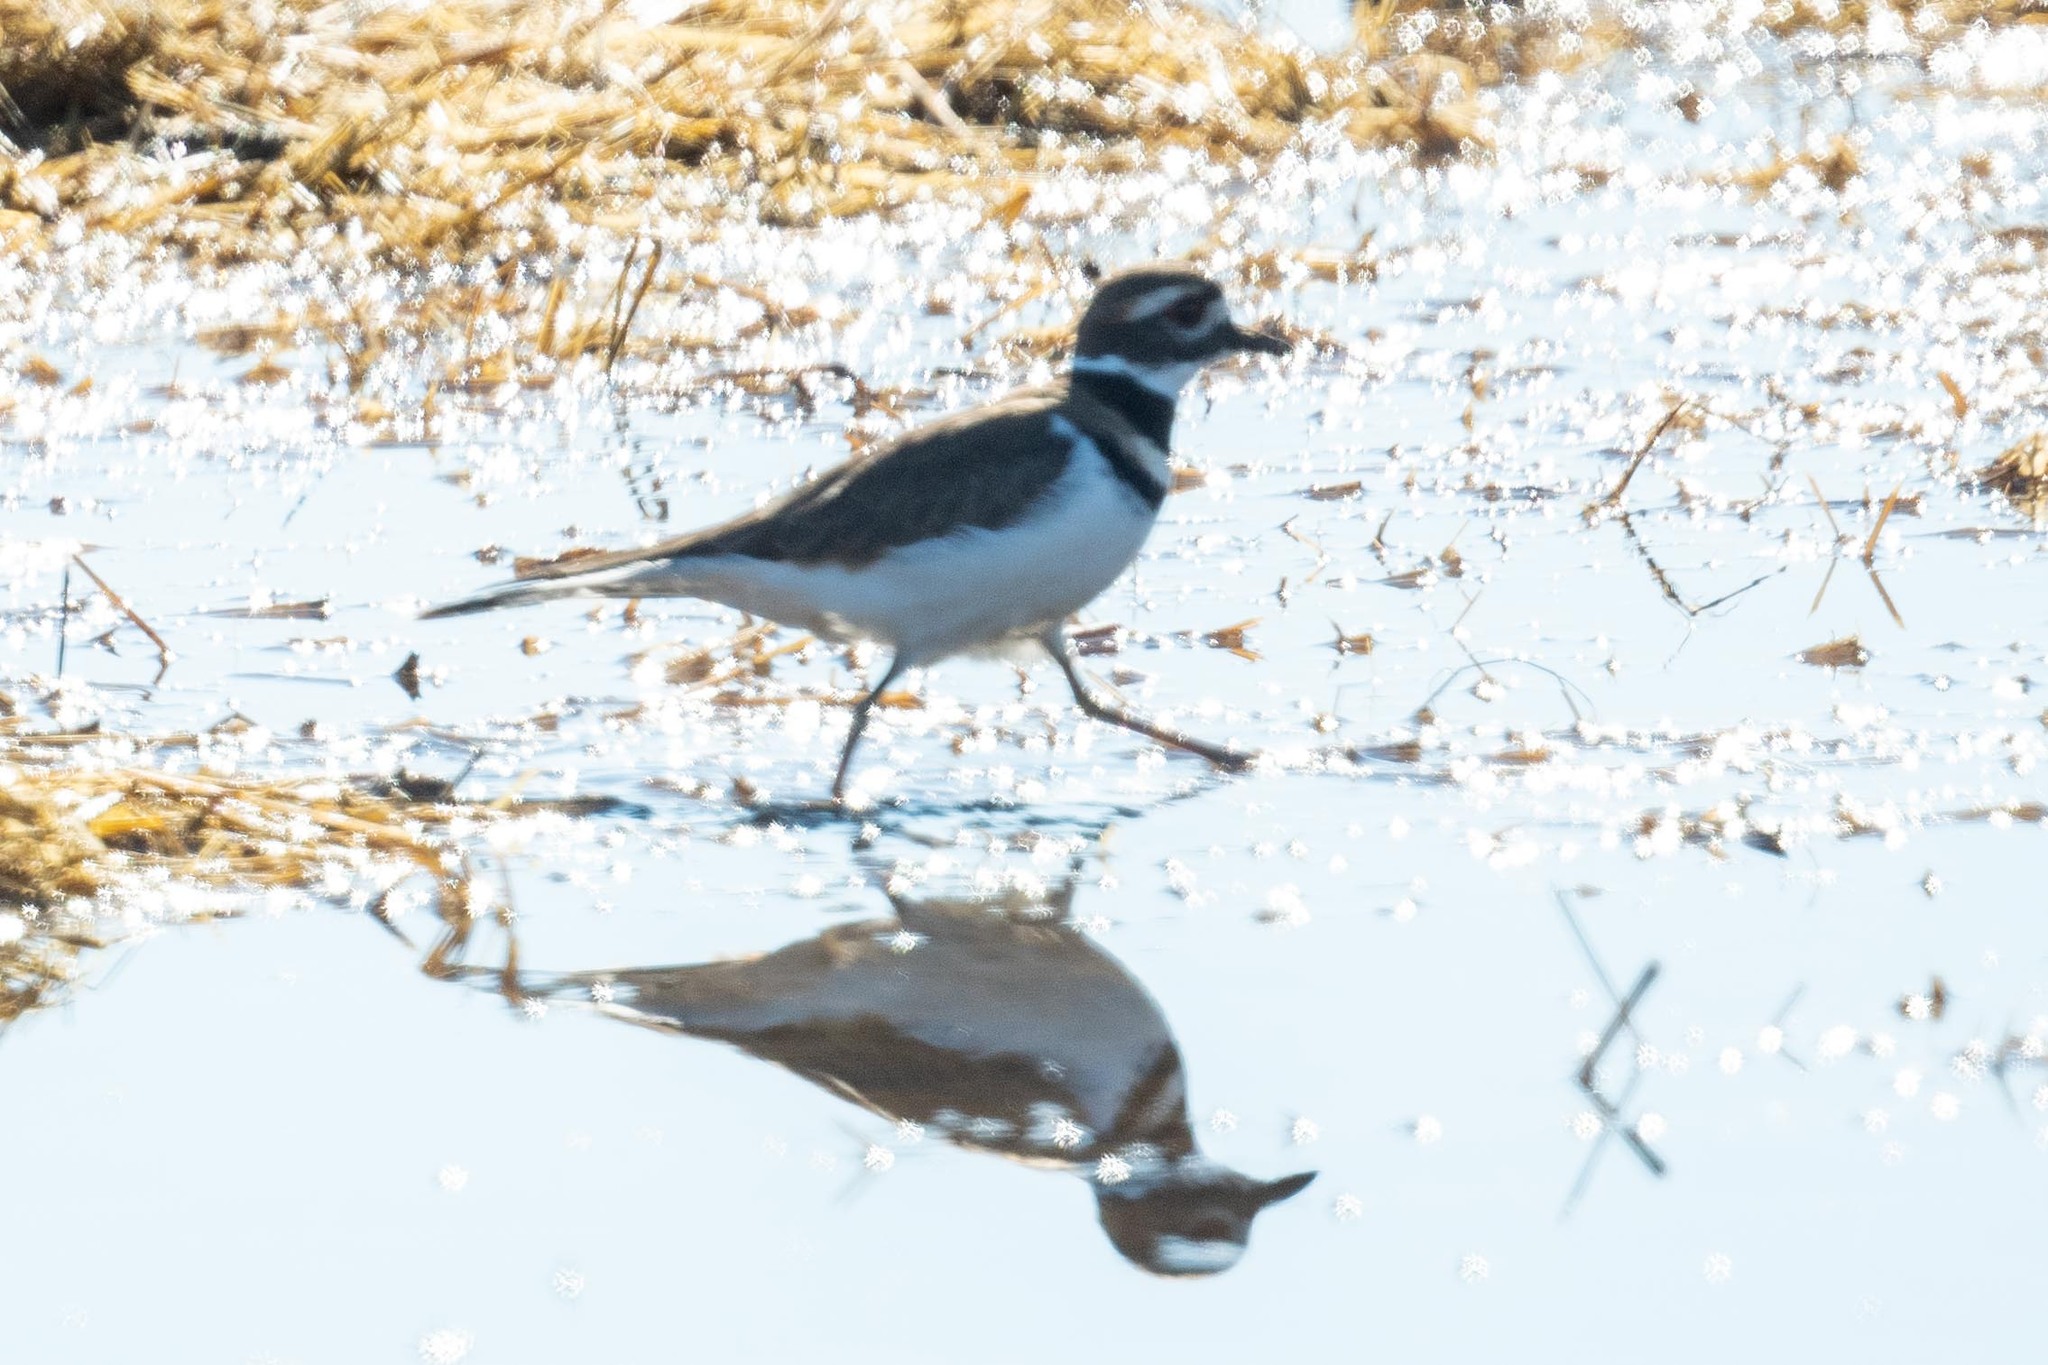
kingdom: Animalia
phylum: Chordata
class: Aves
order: Charadriiformes
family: Charadriidae
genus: Charadrius
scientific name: Charadrius vociferus
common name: Killdeer
